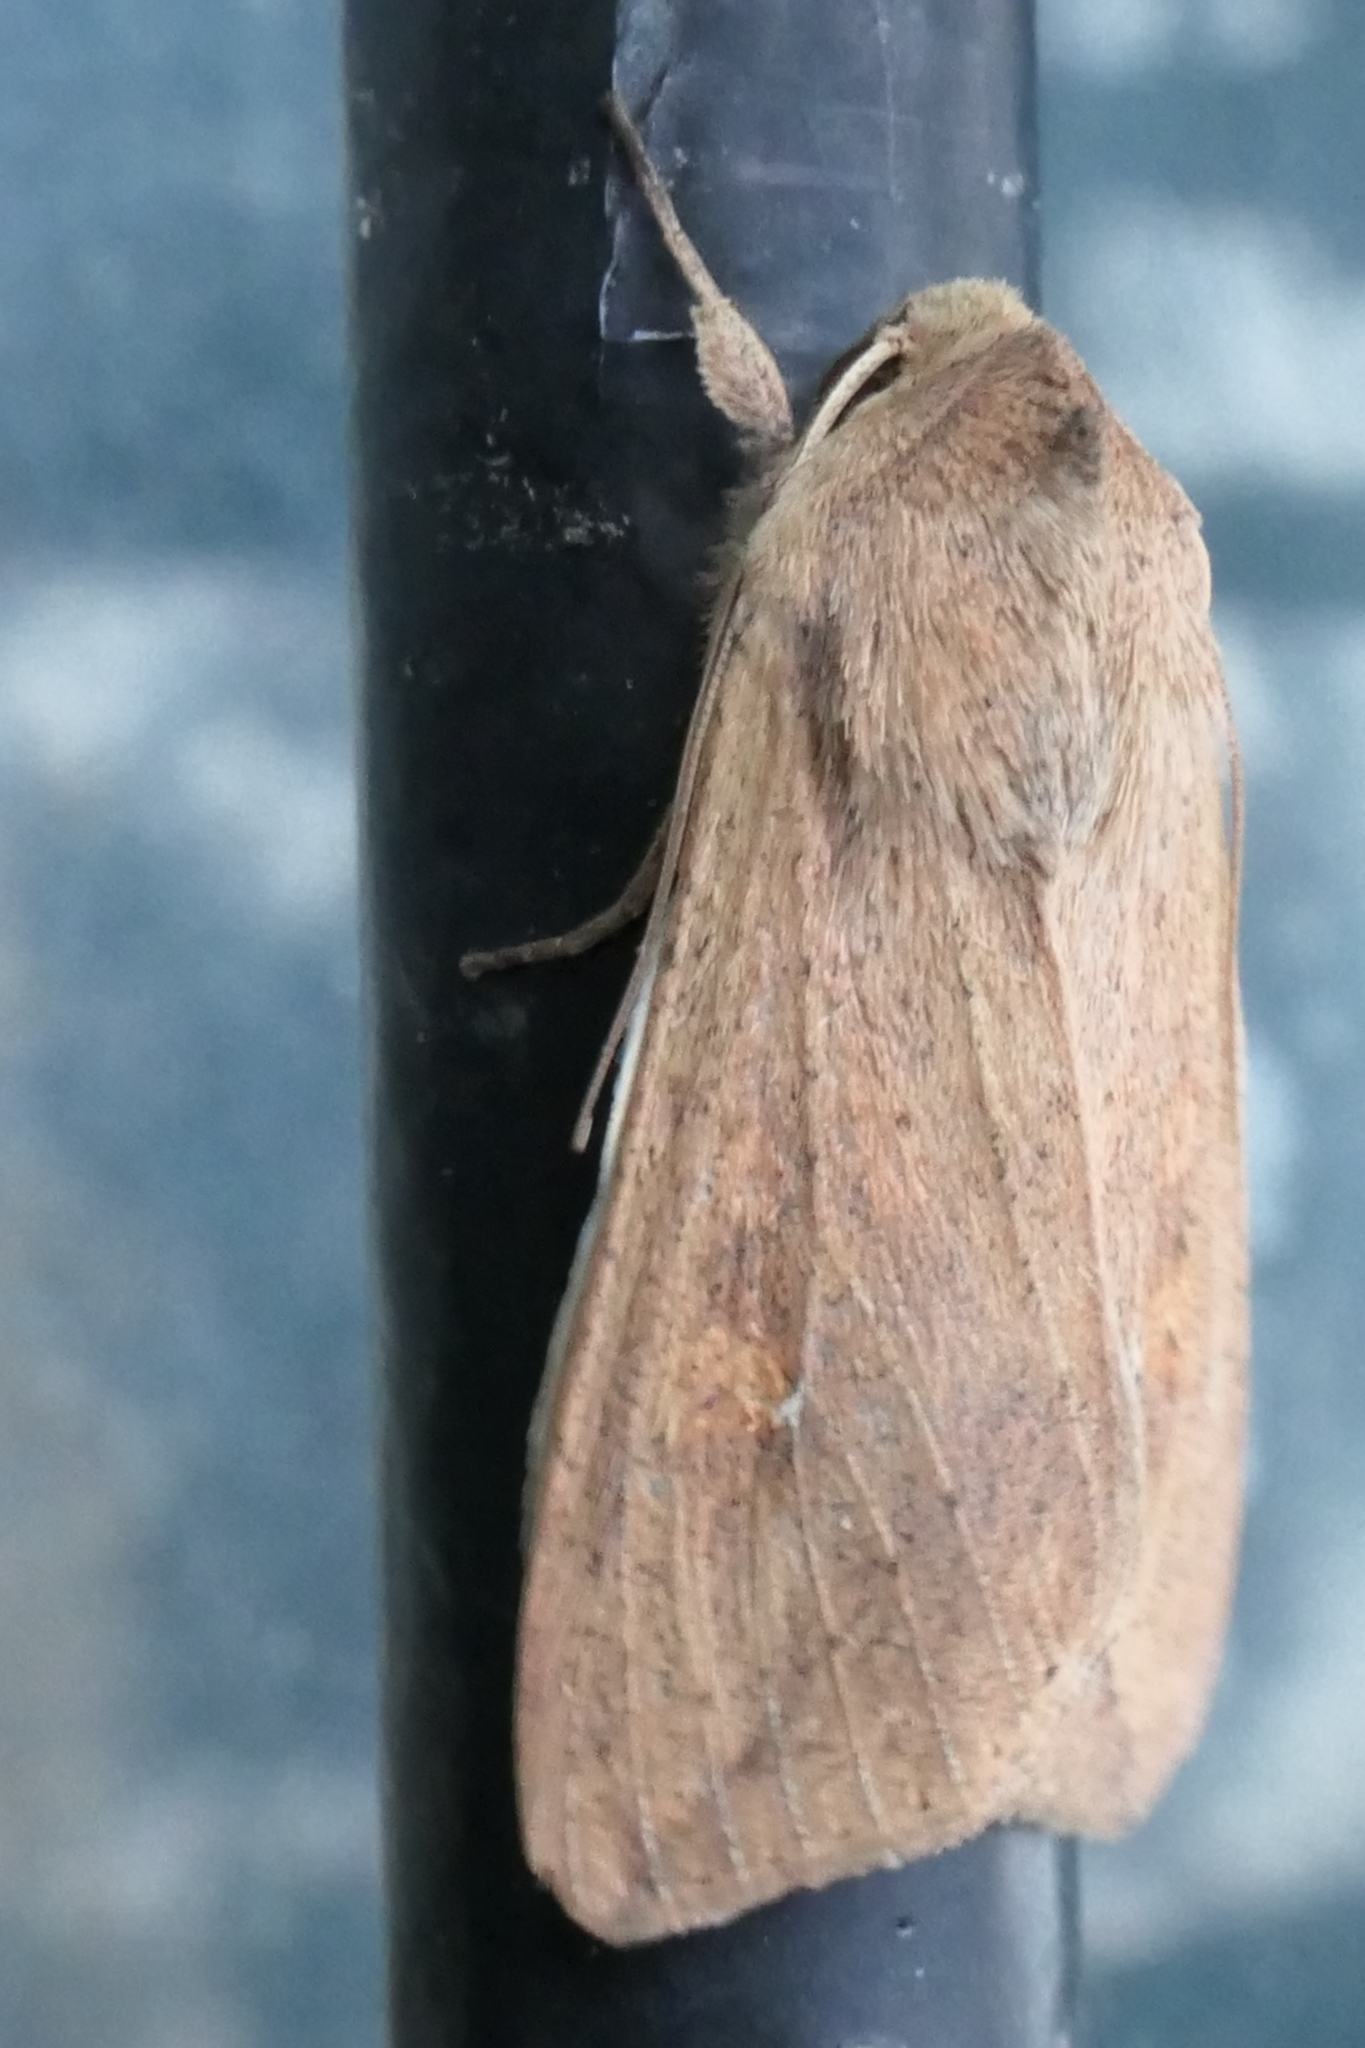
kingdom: Animalia
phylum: Arthropoda
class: Insecta
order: Lepidoptera
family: Noctuidae
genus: Mythimna
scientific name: Mythimna separata
